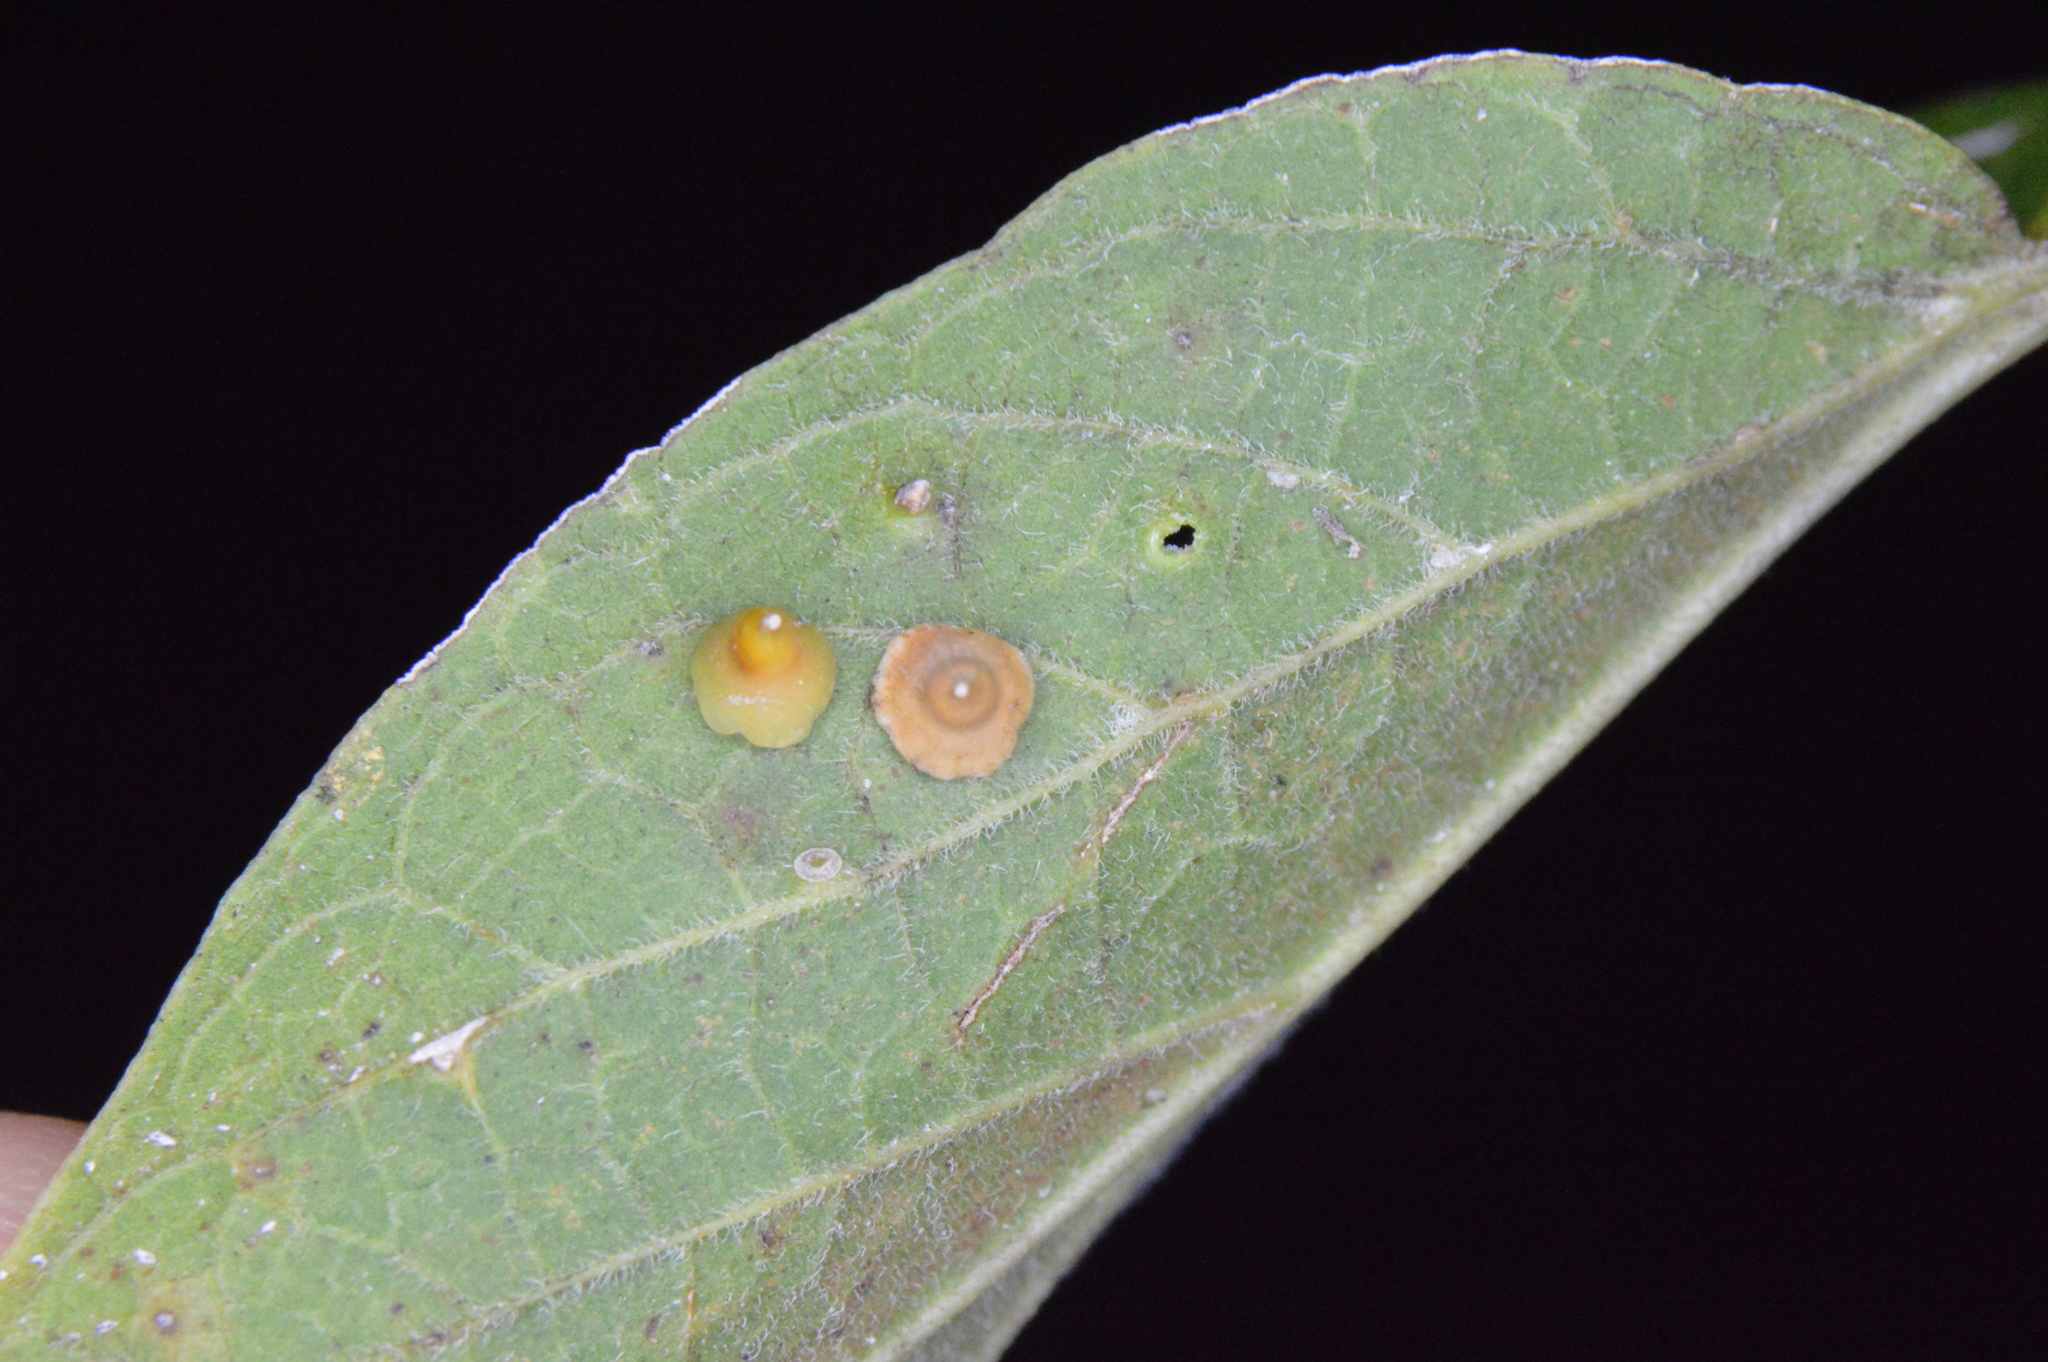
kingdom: Animalia
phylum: Arthropoda
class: Insecta
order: Diptera
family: Cecidomyiidae
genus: Celticecis
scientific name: Celticecis spiniformis
